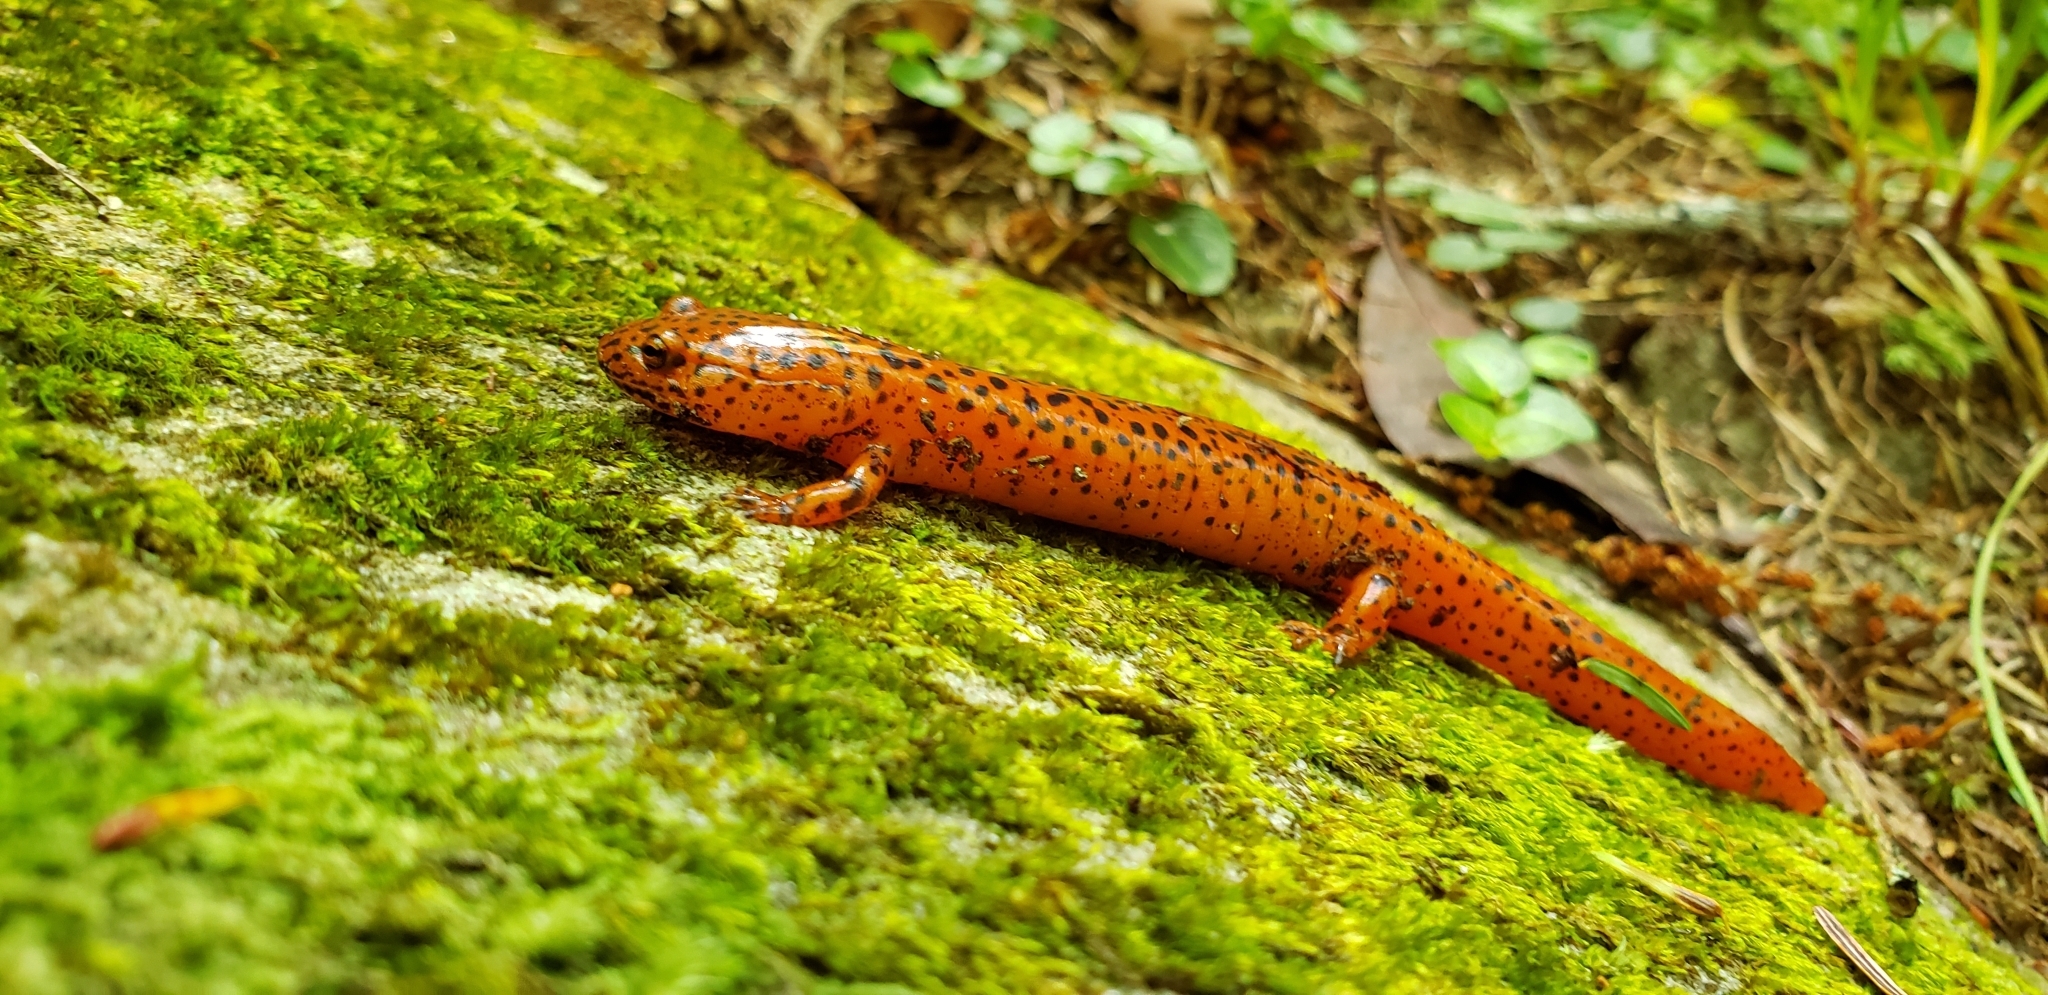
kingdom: Animalia
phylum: Chordata
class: Amphibia
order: Caudata
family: Plethodontidae
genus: Pseudotriton
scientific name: Pseudotriton ruber
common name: Red salamander
